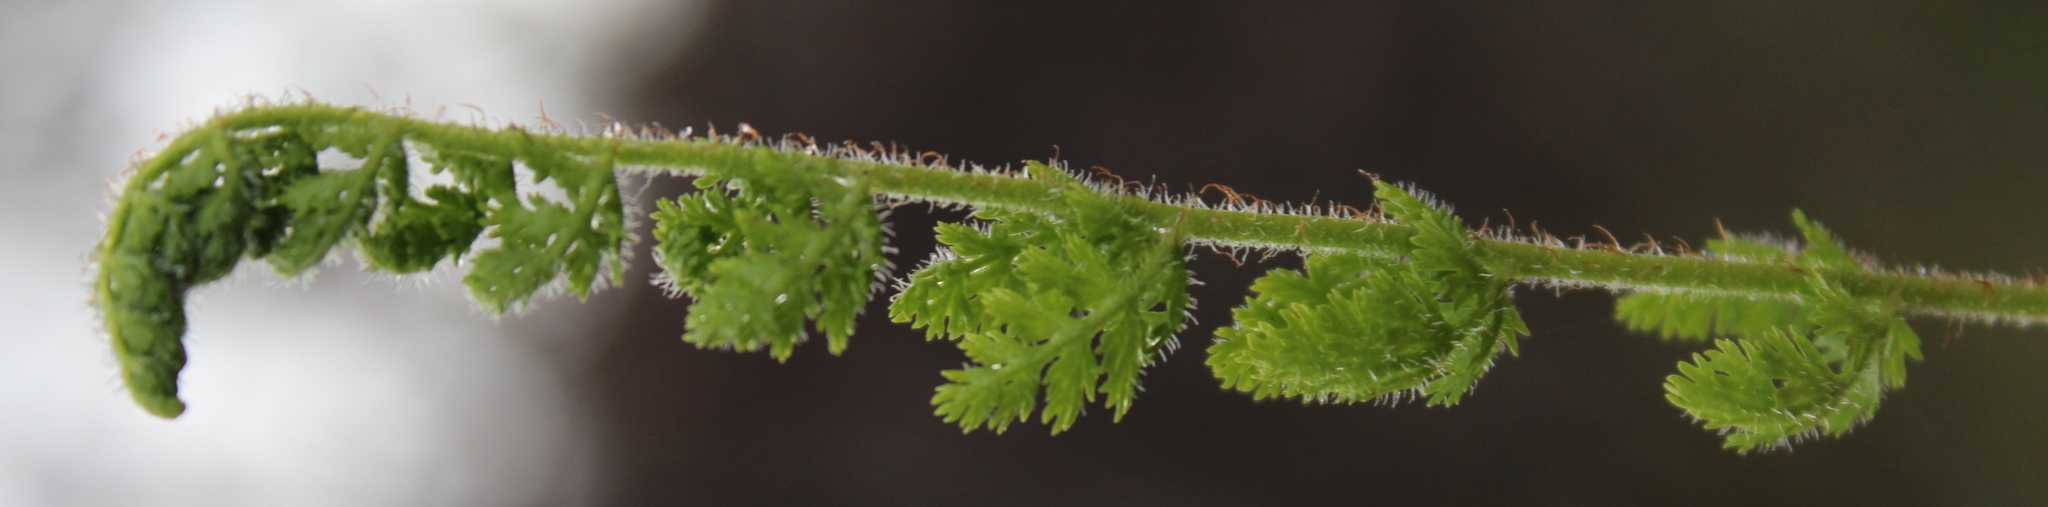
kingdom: Plantae
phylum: Tracheophyta
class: Polypodiopsida
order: Schizaeales
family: Anemiaceae
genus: Anemia
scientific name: Anemia caffrorum
